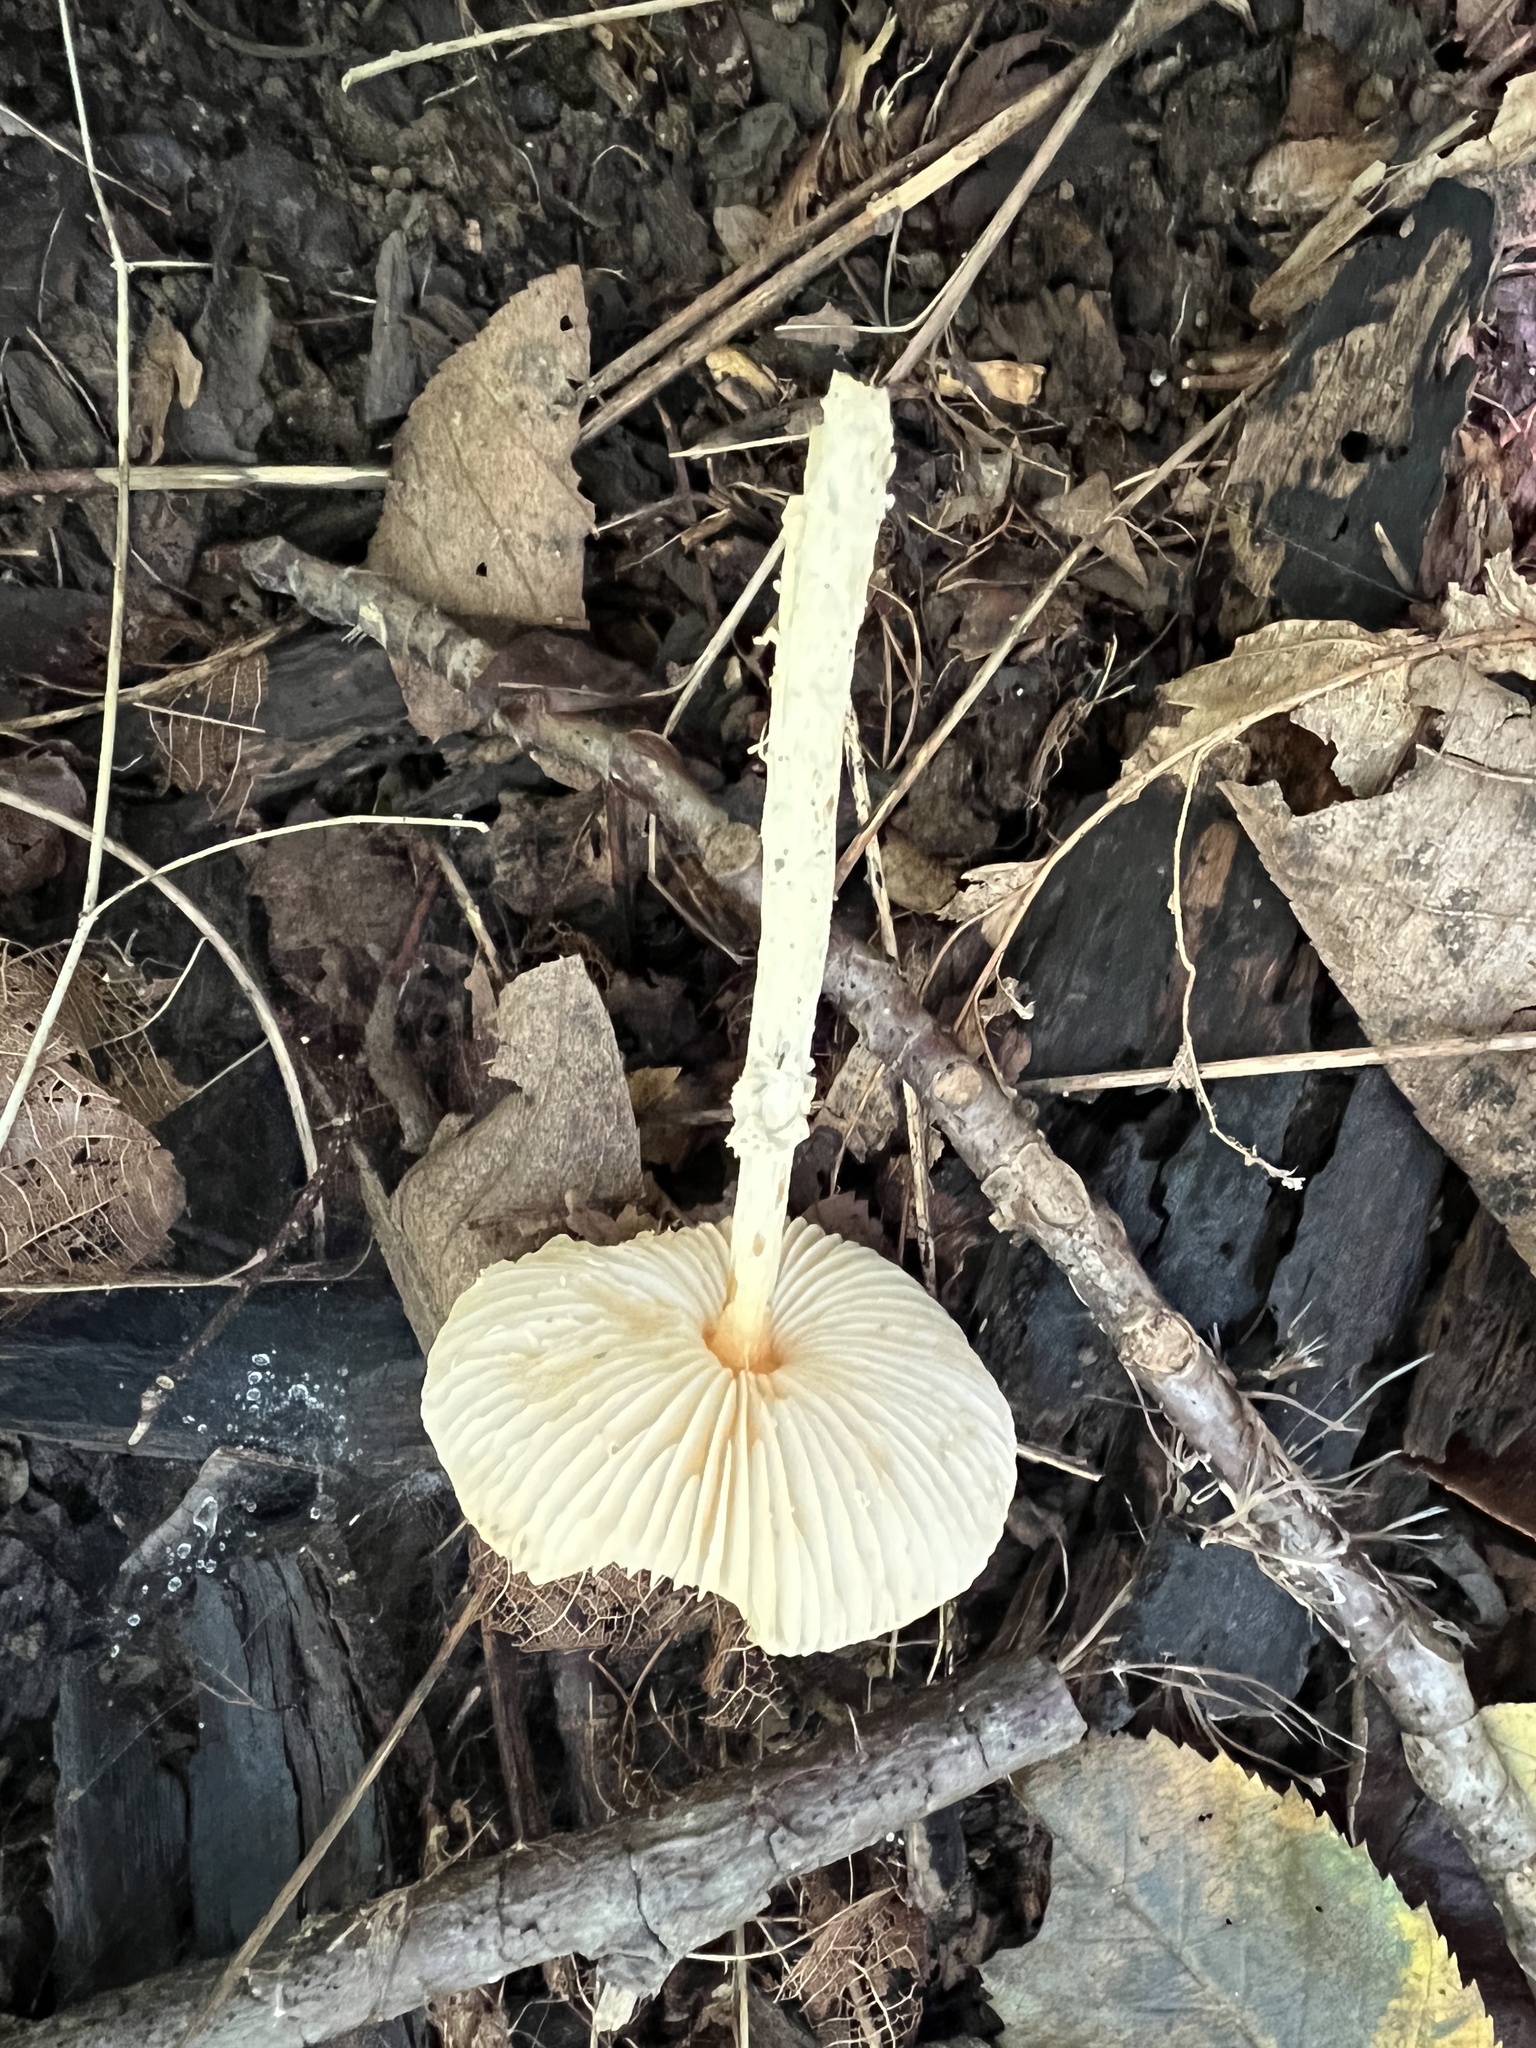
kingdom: Fungi
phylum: Basidiomycota
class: Agaricomycetes
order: Agaricales
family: Agaricaceae
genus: Lepiota
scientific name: Lepiota maculans
